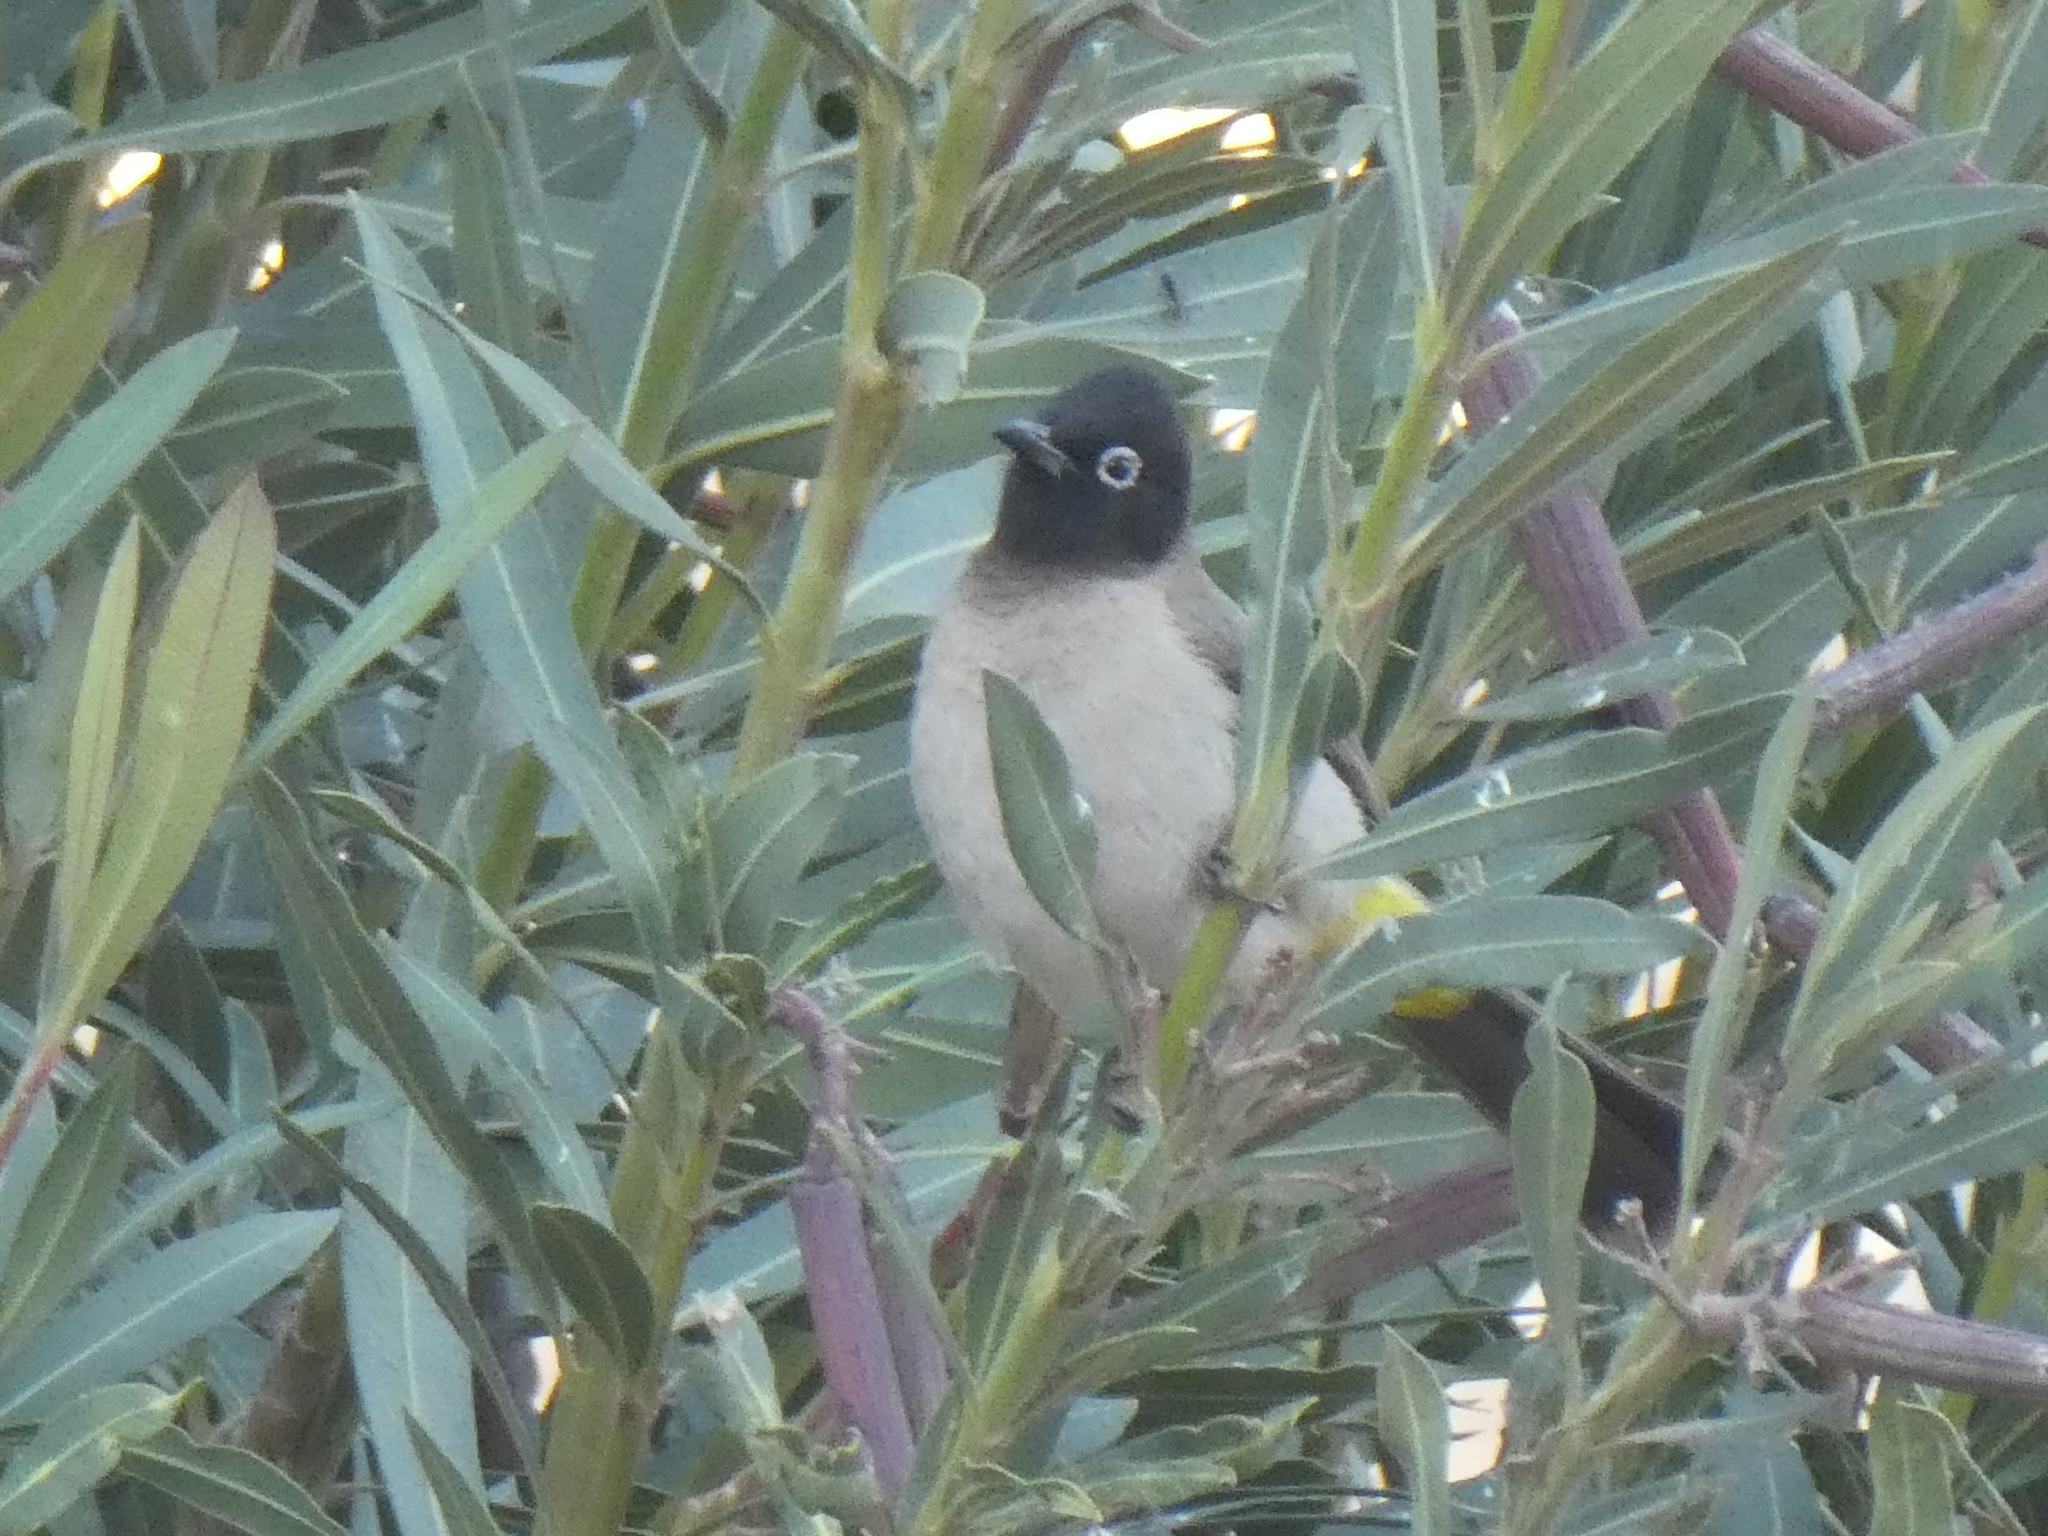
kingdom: Animalia
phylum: Chordata
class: Aves
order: Passeriformes
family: Pycnonotidae
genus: Pycnonotus
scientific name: Pycnonotus xanthopygos
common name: White-spectacled bulbul
